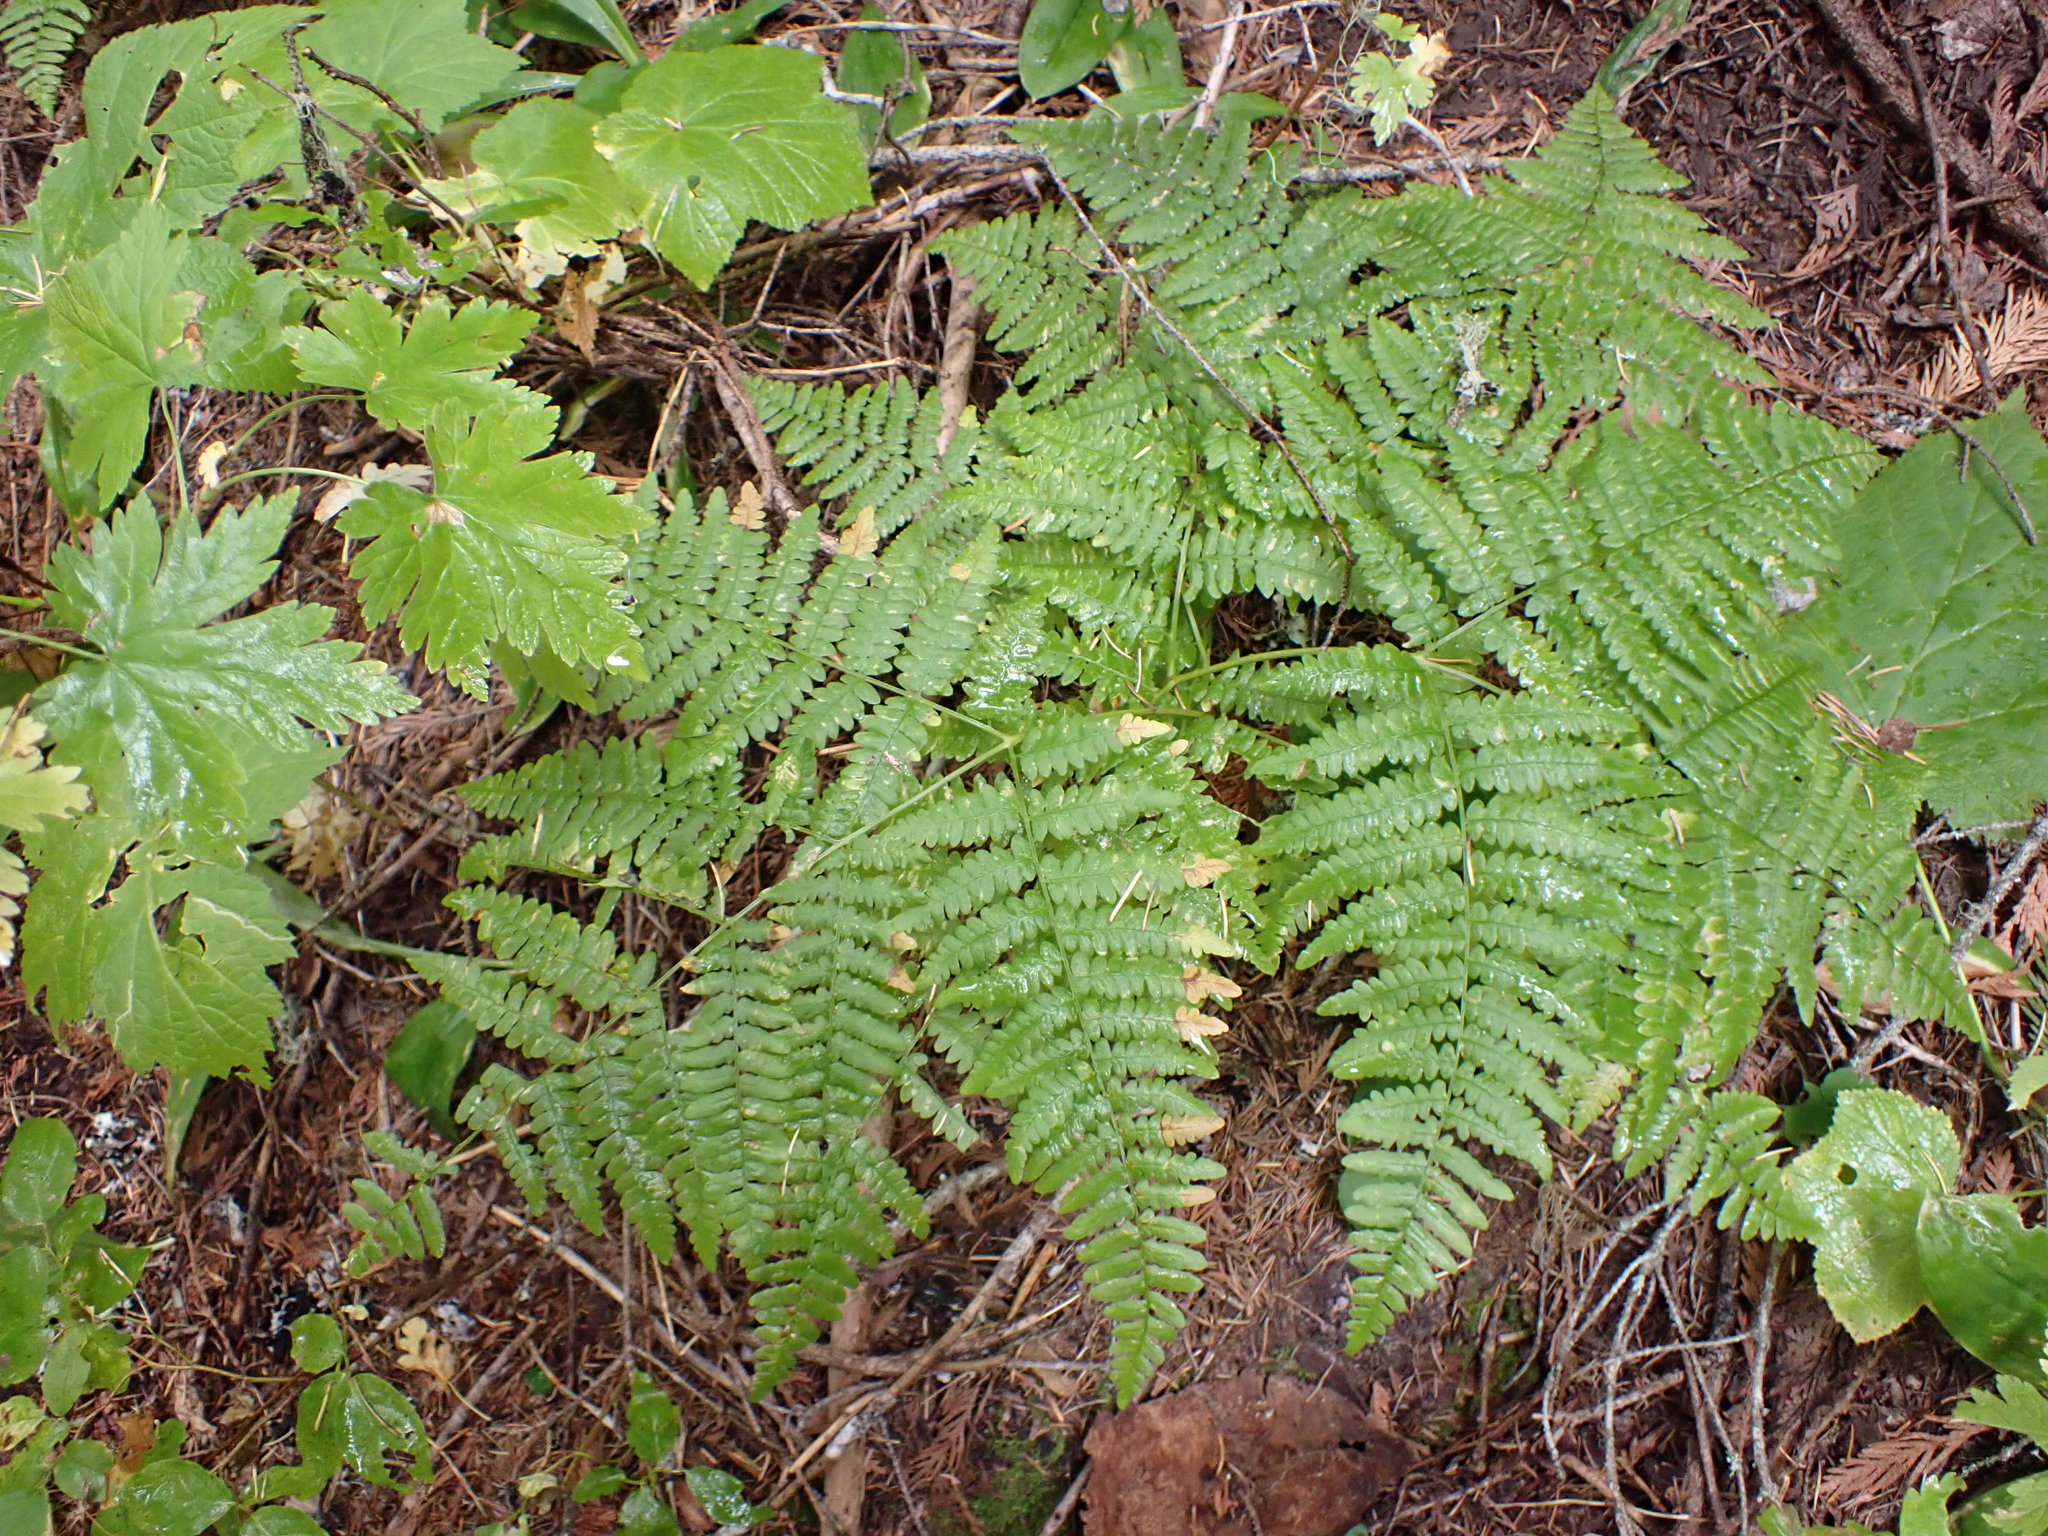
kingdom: Plantae
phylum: Tracheophyta
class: Polypodiopsida
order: Polypodiales
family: Dennstaedtiaceae
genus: Pteridium
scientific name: Pteridium aquilinum
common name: Bracken
